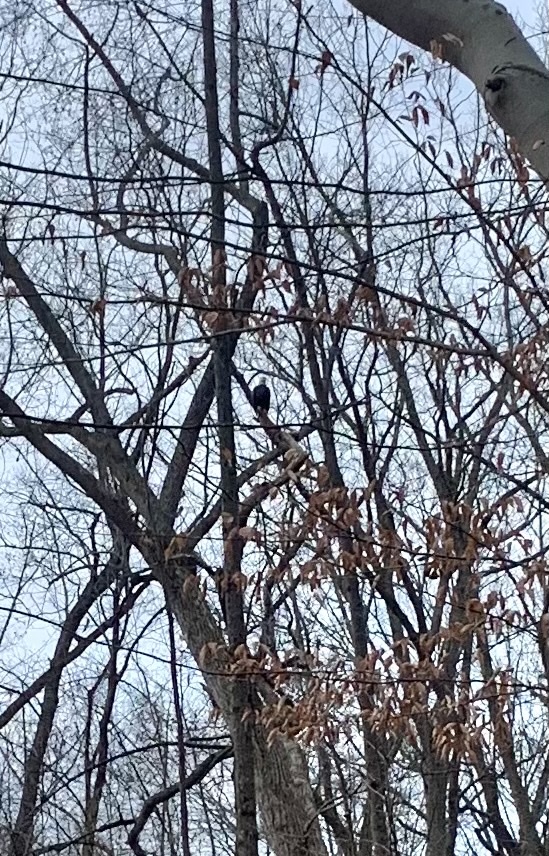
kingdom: Animalia
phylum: Chordata
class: Aves
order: Accipitriformes
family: Accipitridae
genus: Haliaeetus
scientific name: Haliaeetus leucocephalus
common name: Bald eagle
